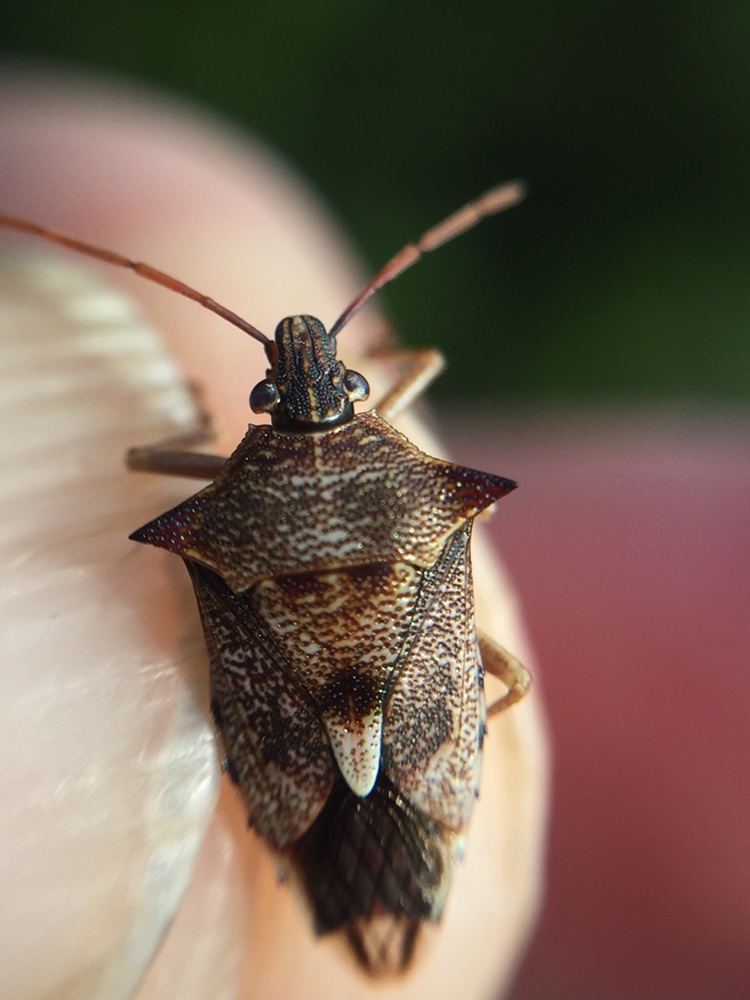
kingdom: Animalia
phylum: Arthropoda
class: Insecta
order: Hemiptera
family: Pentatomidae
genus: Oechalia
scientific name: Oechalia schellenbergii
